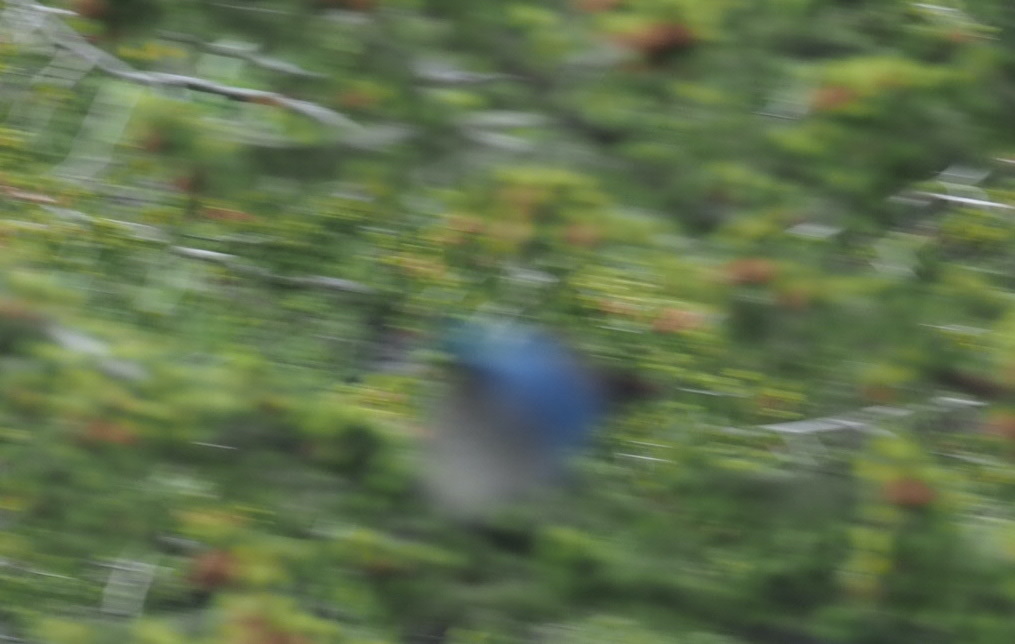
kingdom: Animalia
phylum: Chordata
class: Aves
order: Passeriformes
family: Corvidae
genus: Cyanocitta
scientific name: Cyanocitta stelleri
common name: Steller's jay
